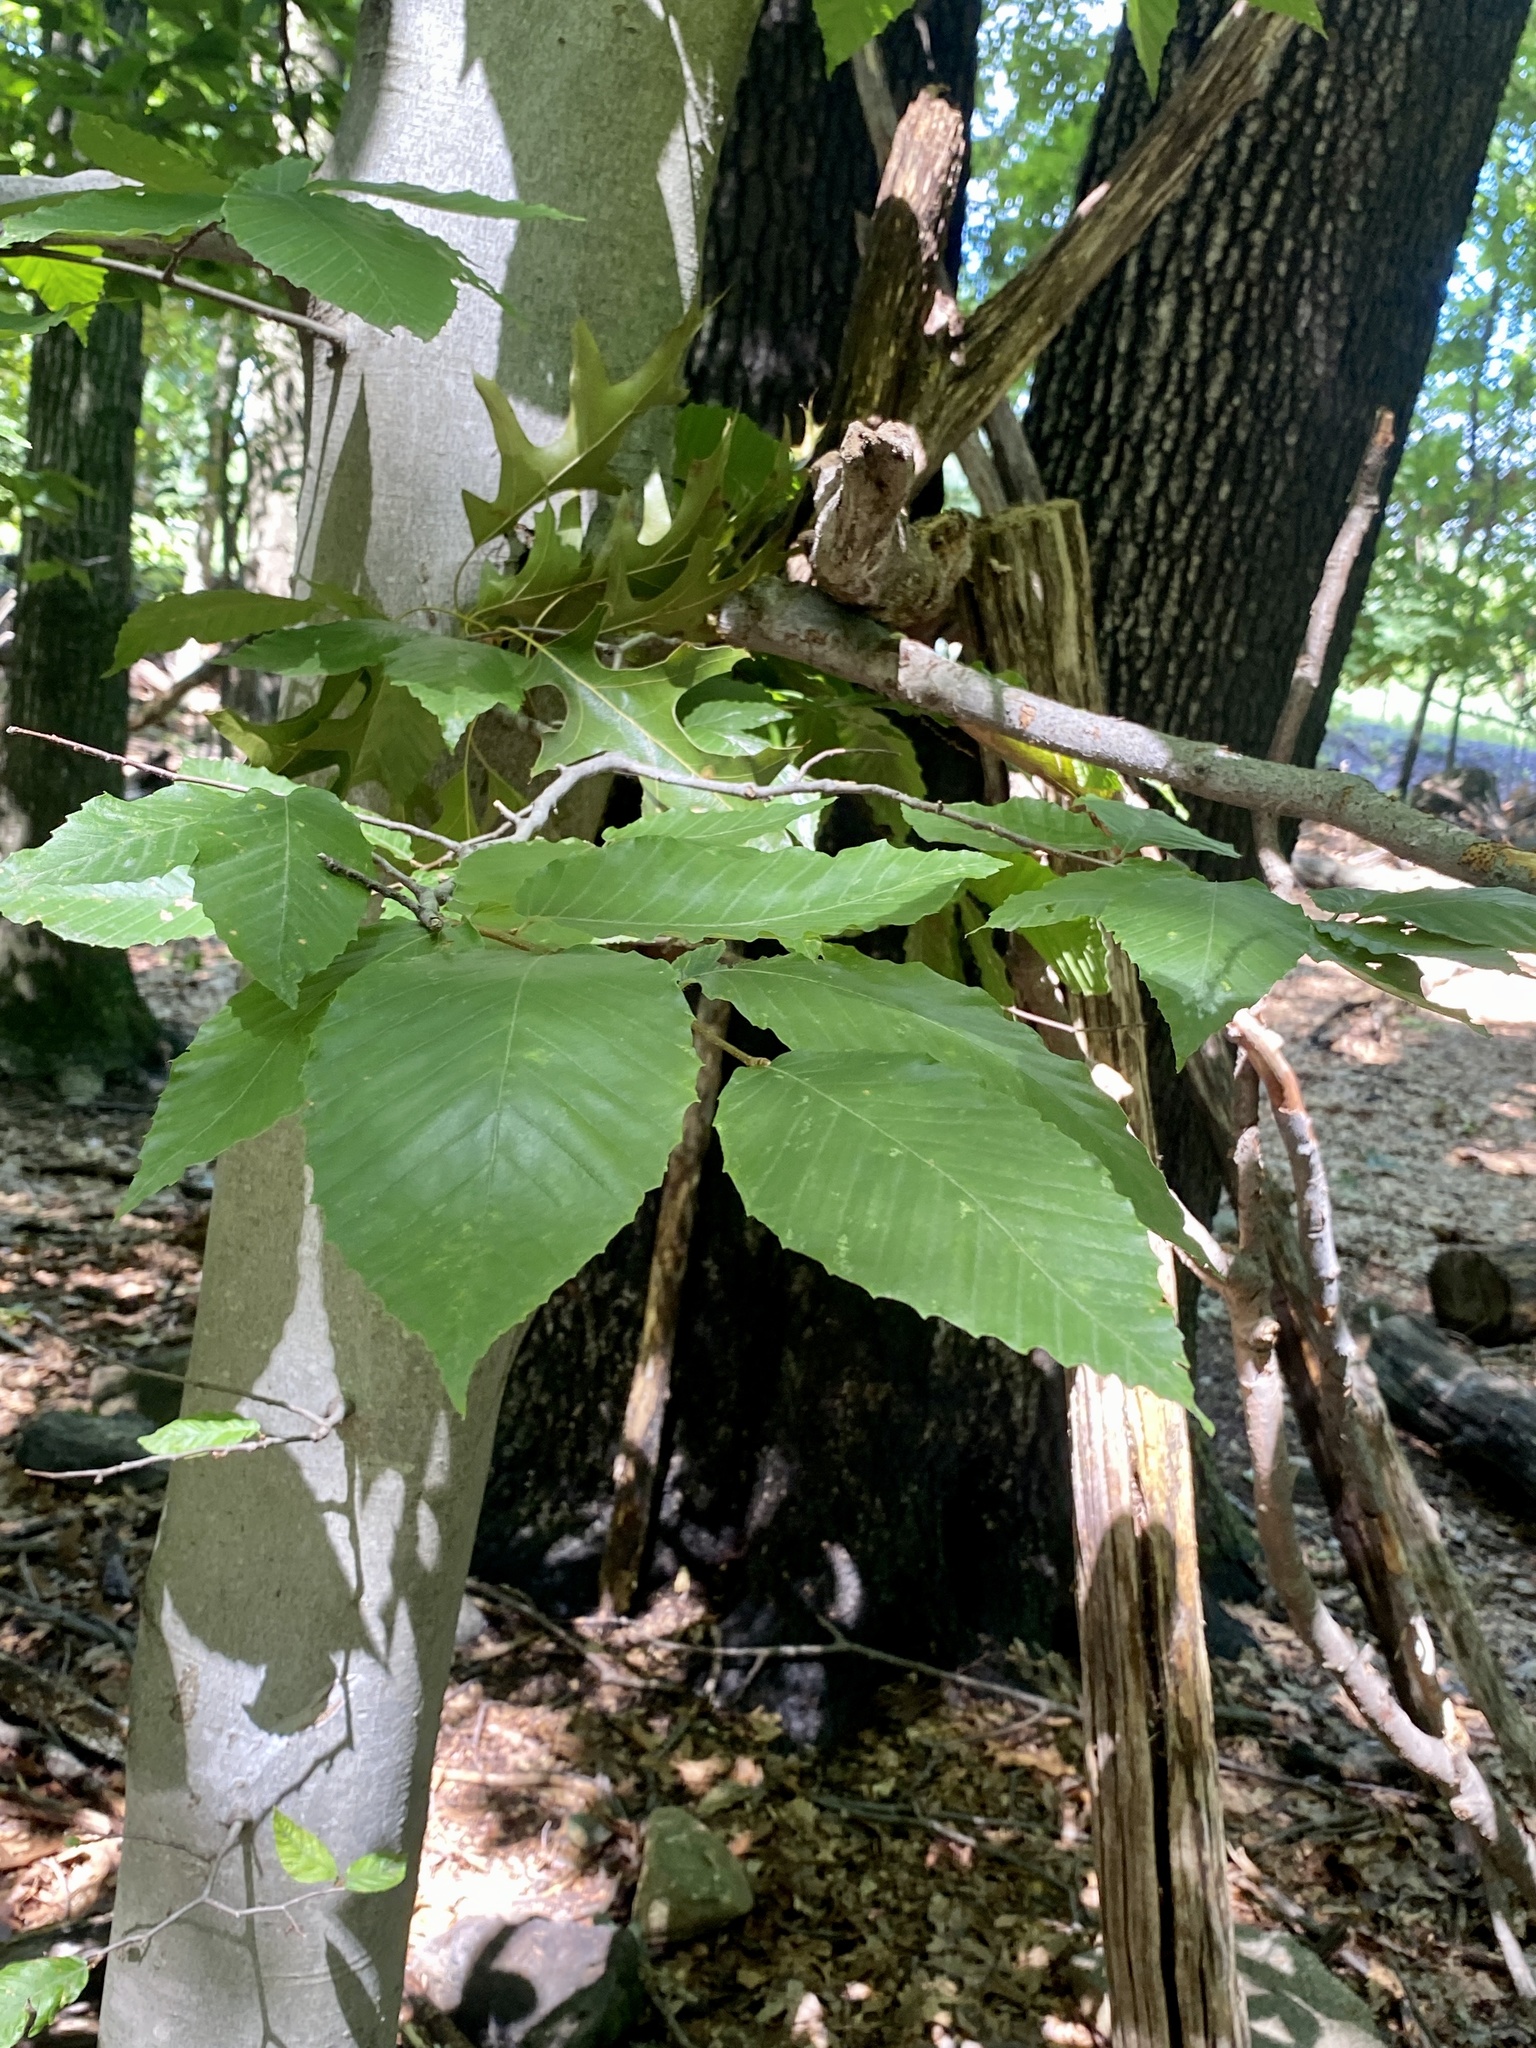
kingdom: Plantae
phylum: Tracheophyta
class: Magnoliopsida
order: Fagales
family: Fagaceae
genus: Fagus
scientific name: Fagus grandifolia
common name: American beech
